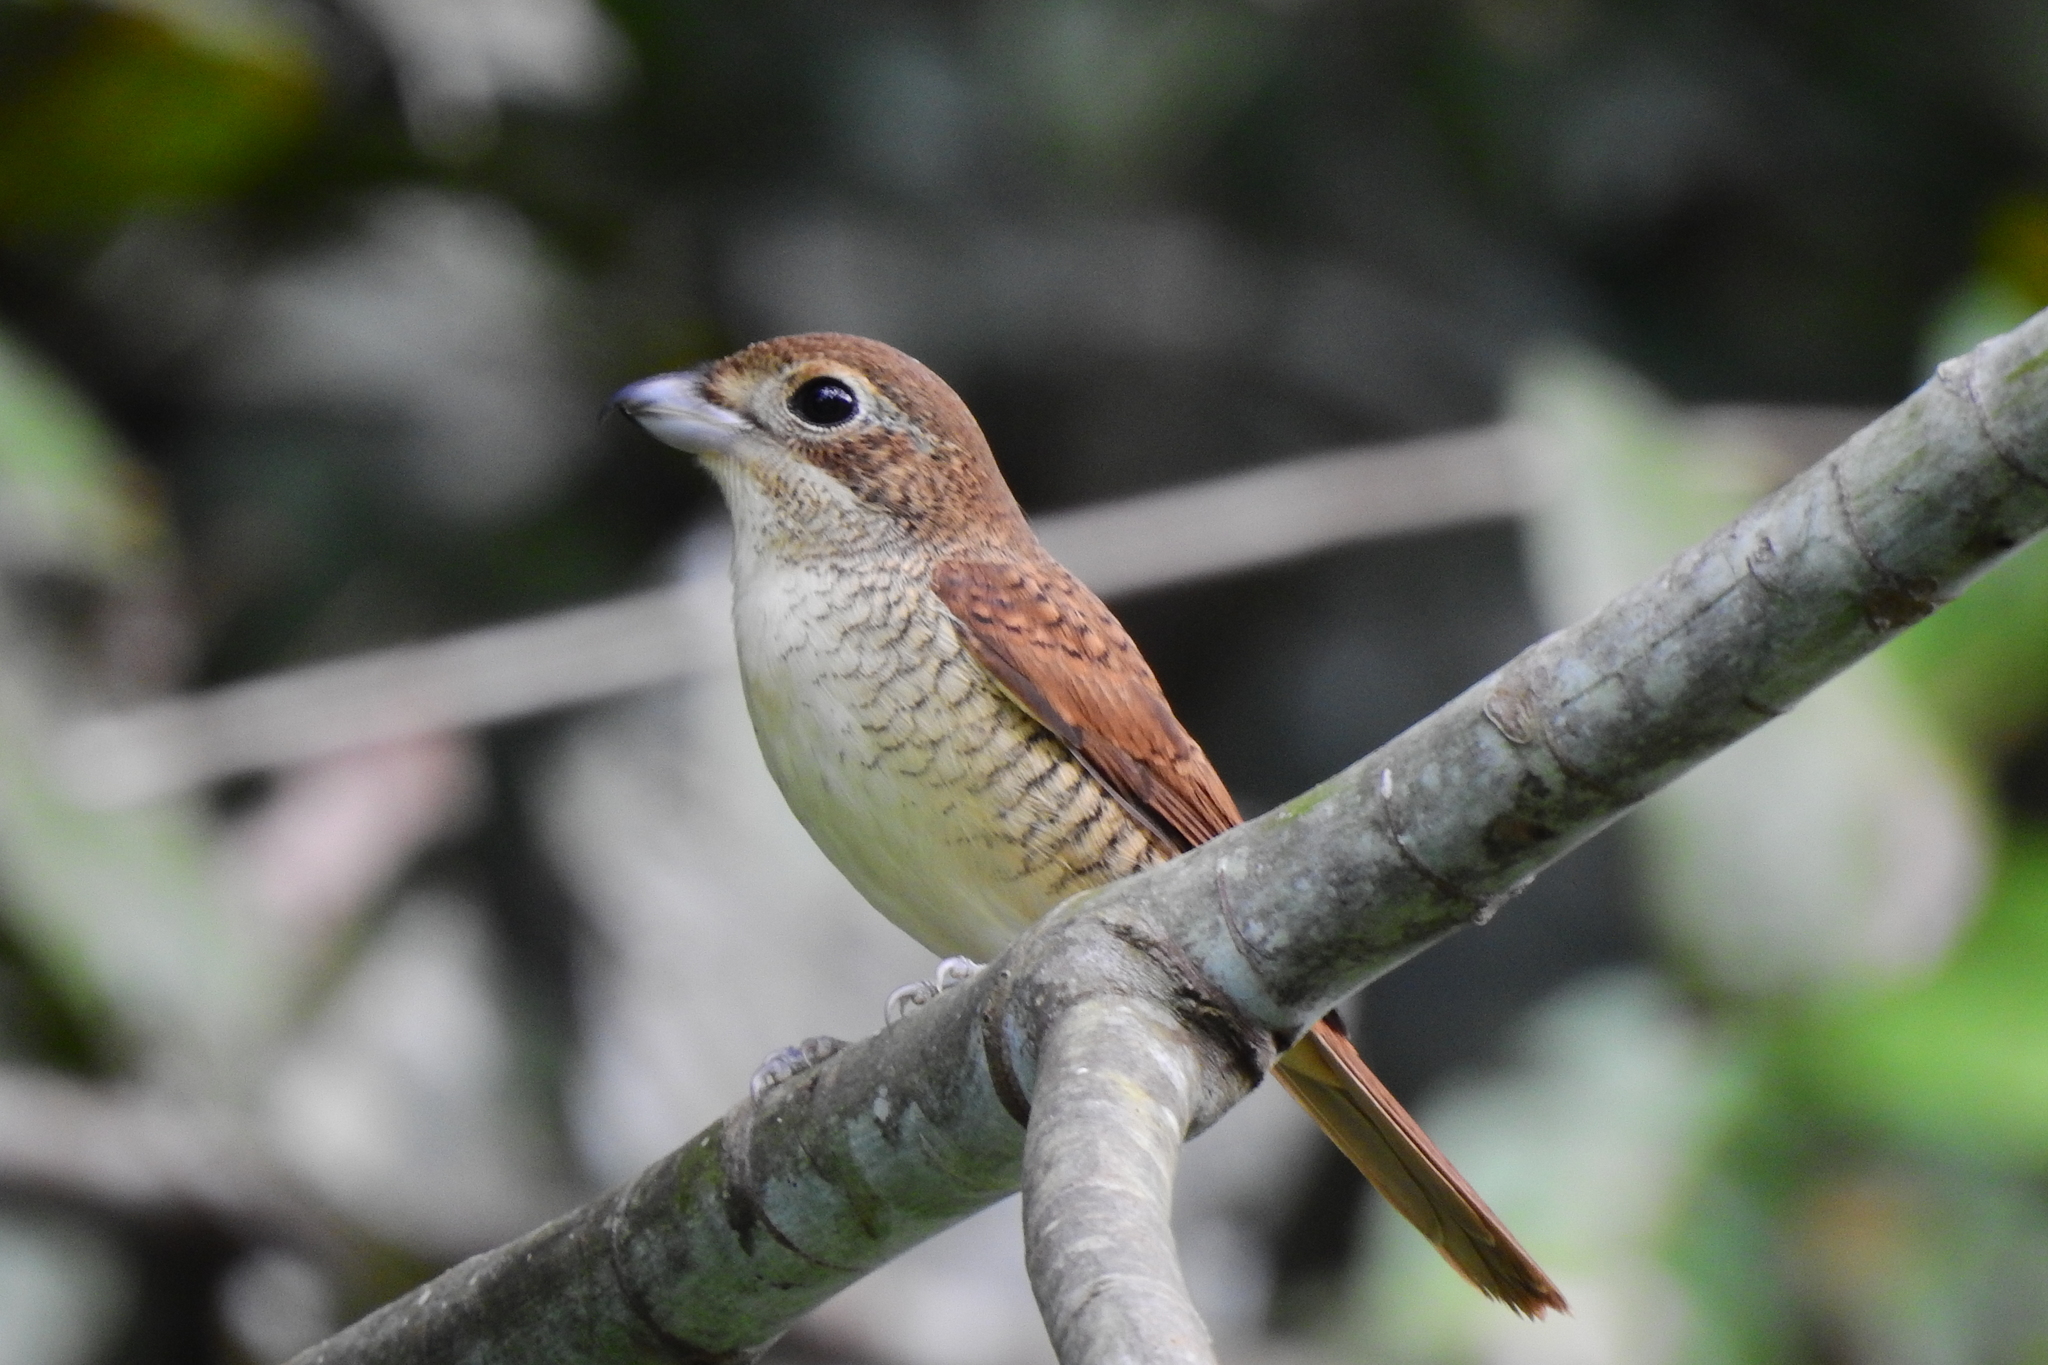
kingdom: Animalia
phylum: Chordata
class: Aves
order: Passeriformes
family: Laniidae
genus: Lanius
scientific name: Lanius tigrinus
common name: Tiger shrike
